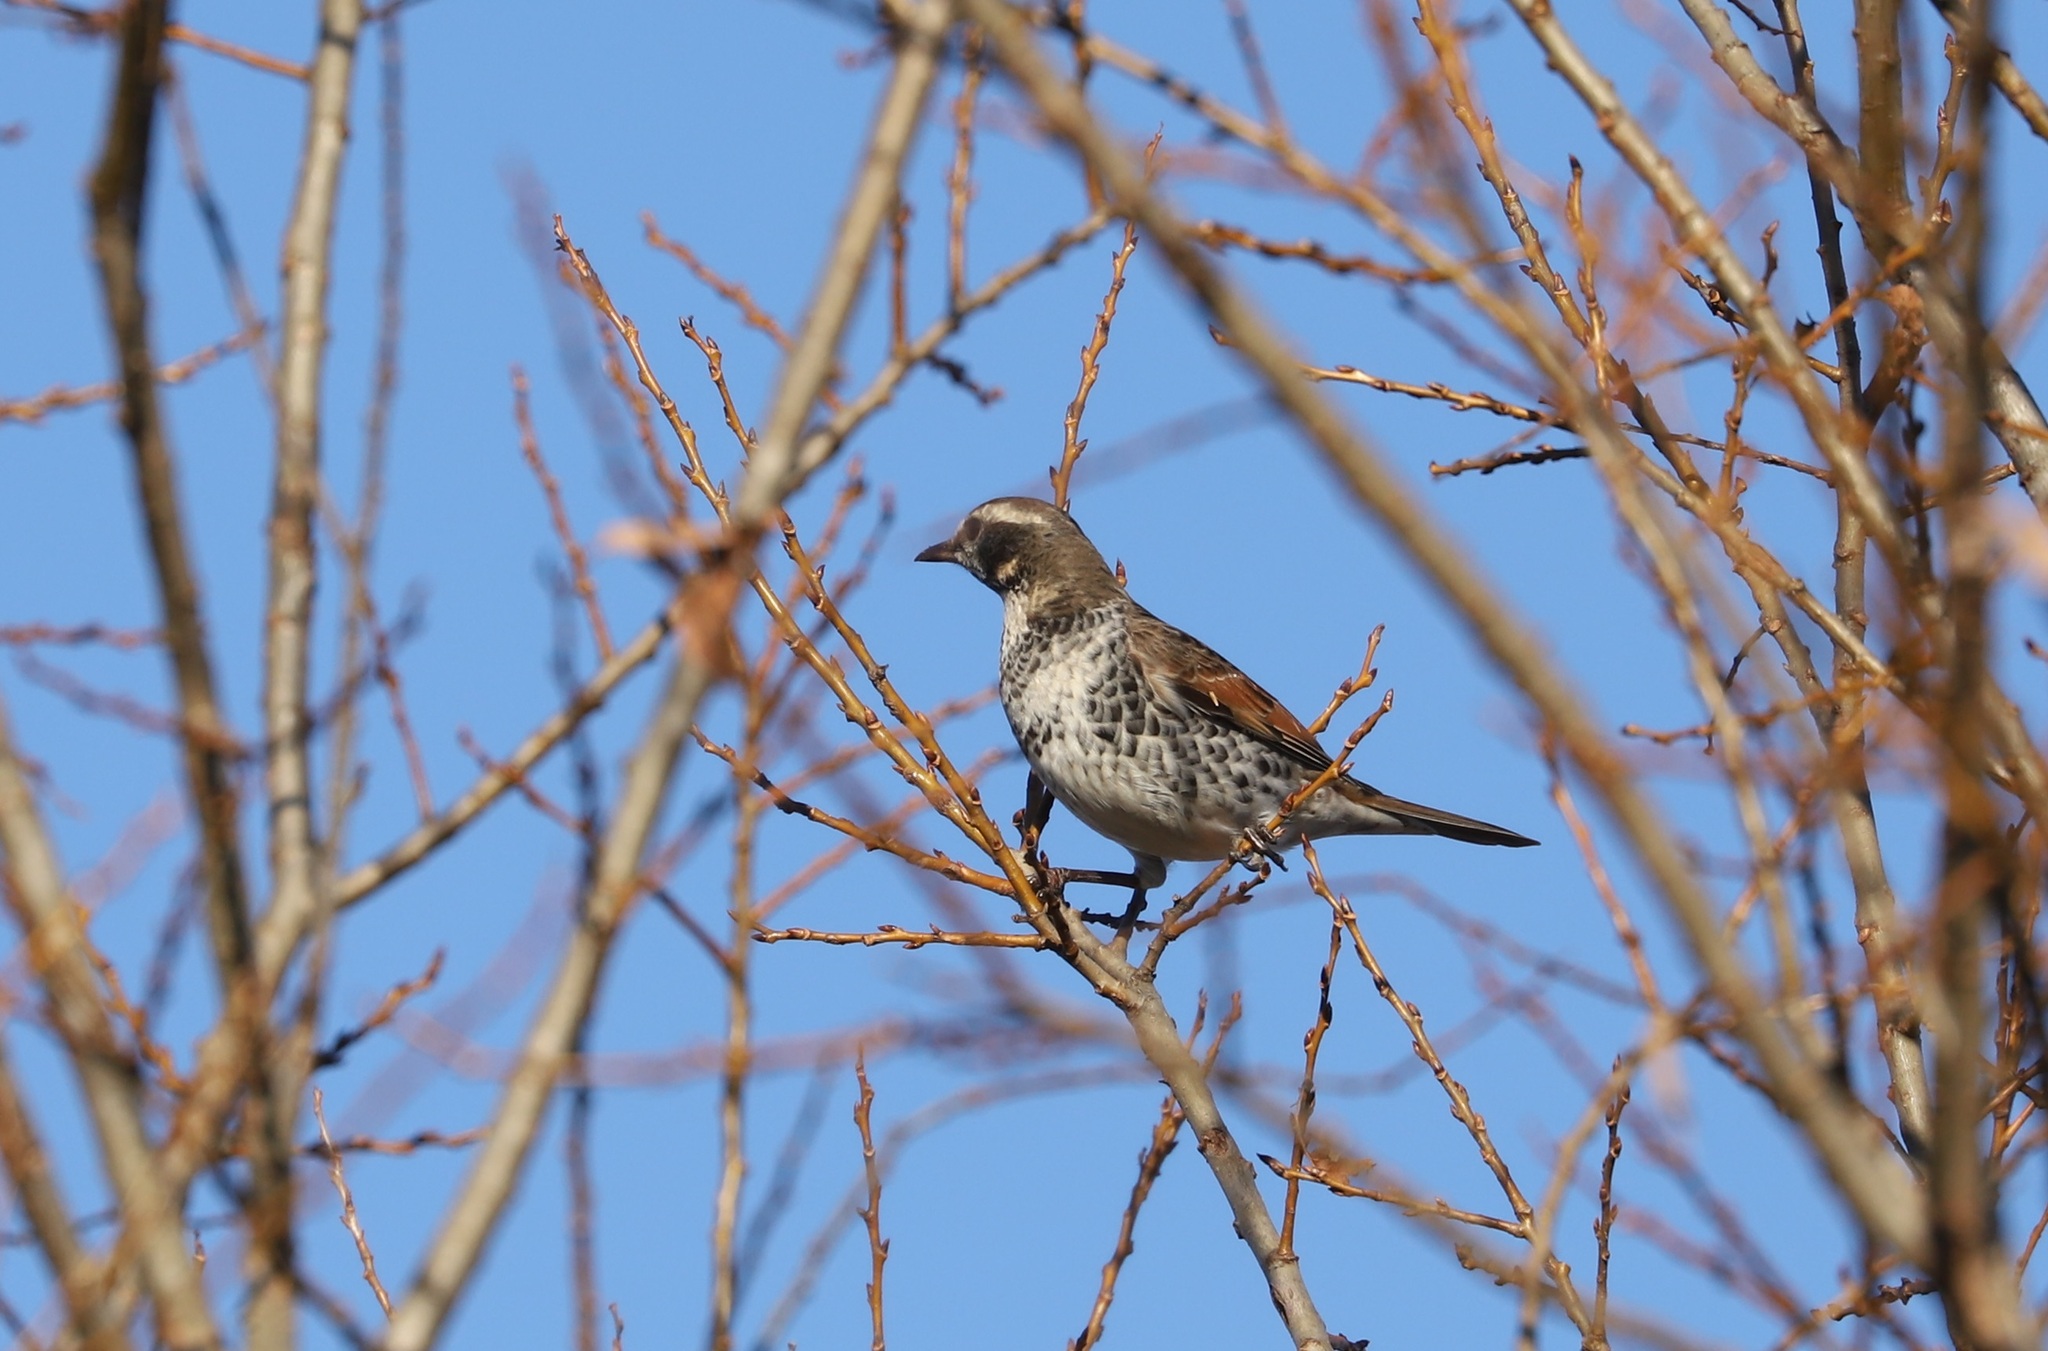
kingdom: Animalia
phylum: Chordata
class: Aves
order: Passeriformes
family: Turdidae
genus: Turdus
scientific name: Turdus eunomus
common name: Dusky thrush
